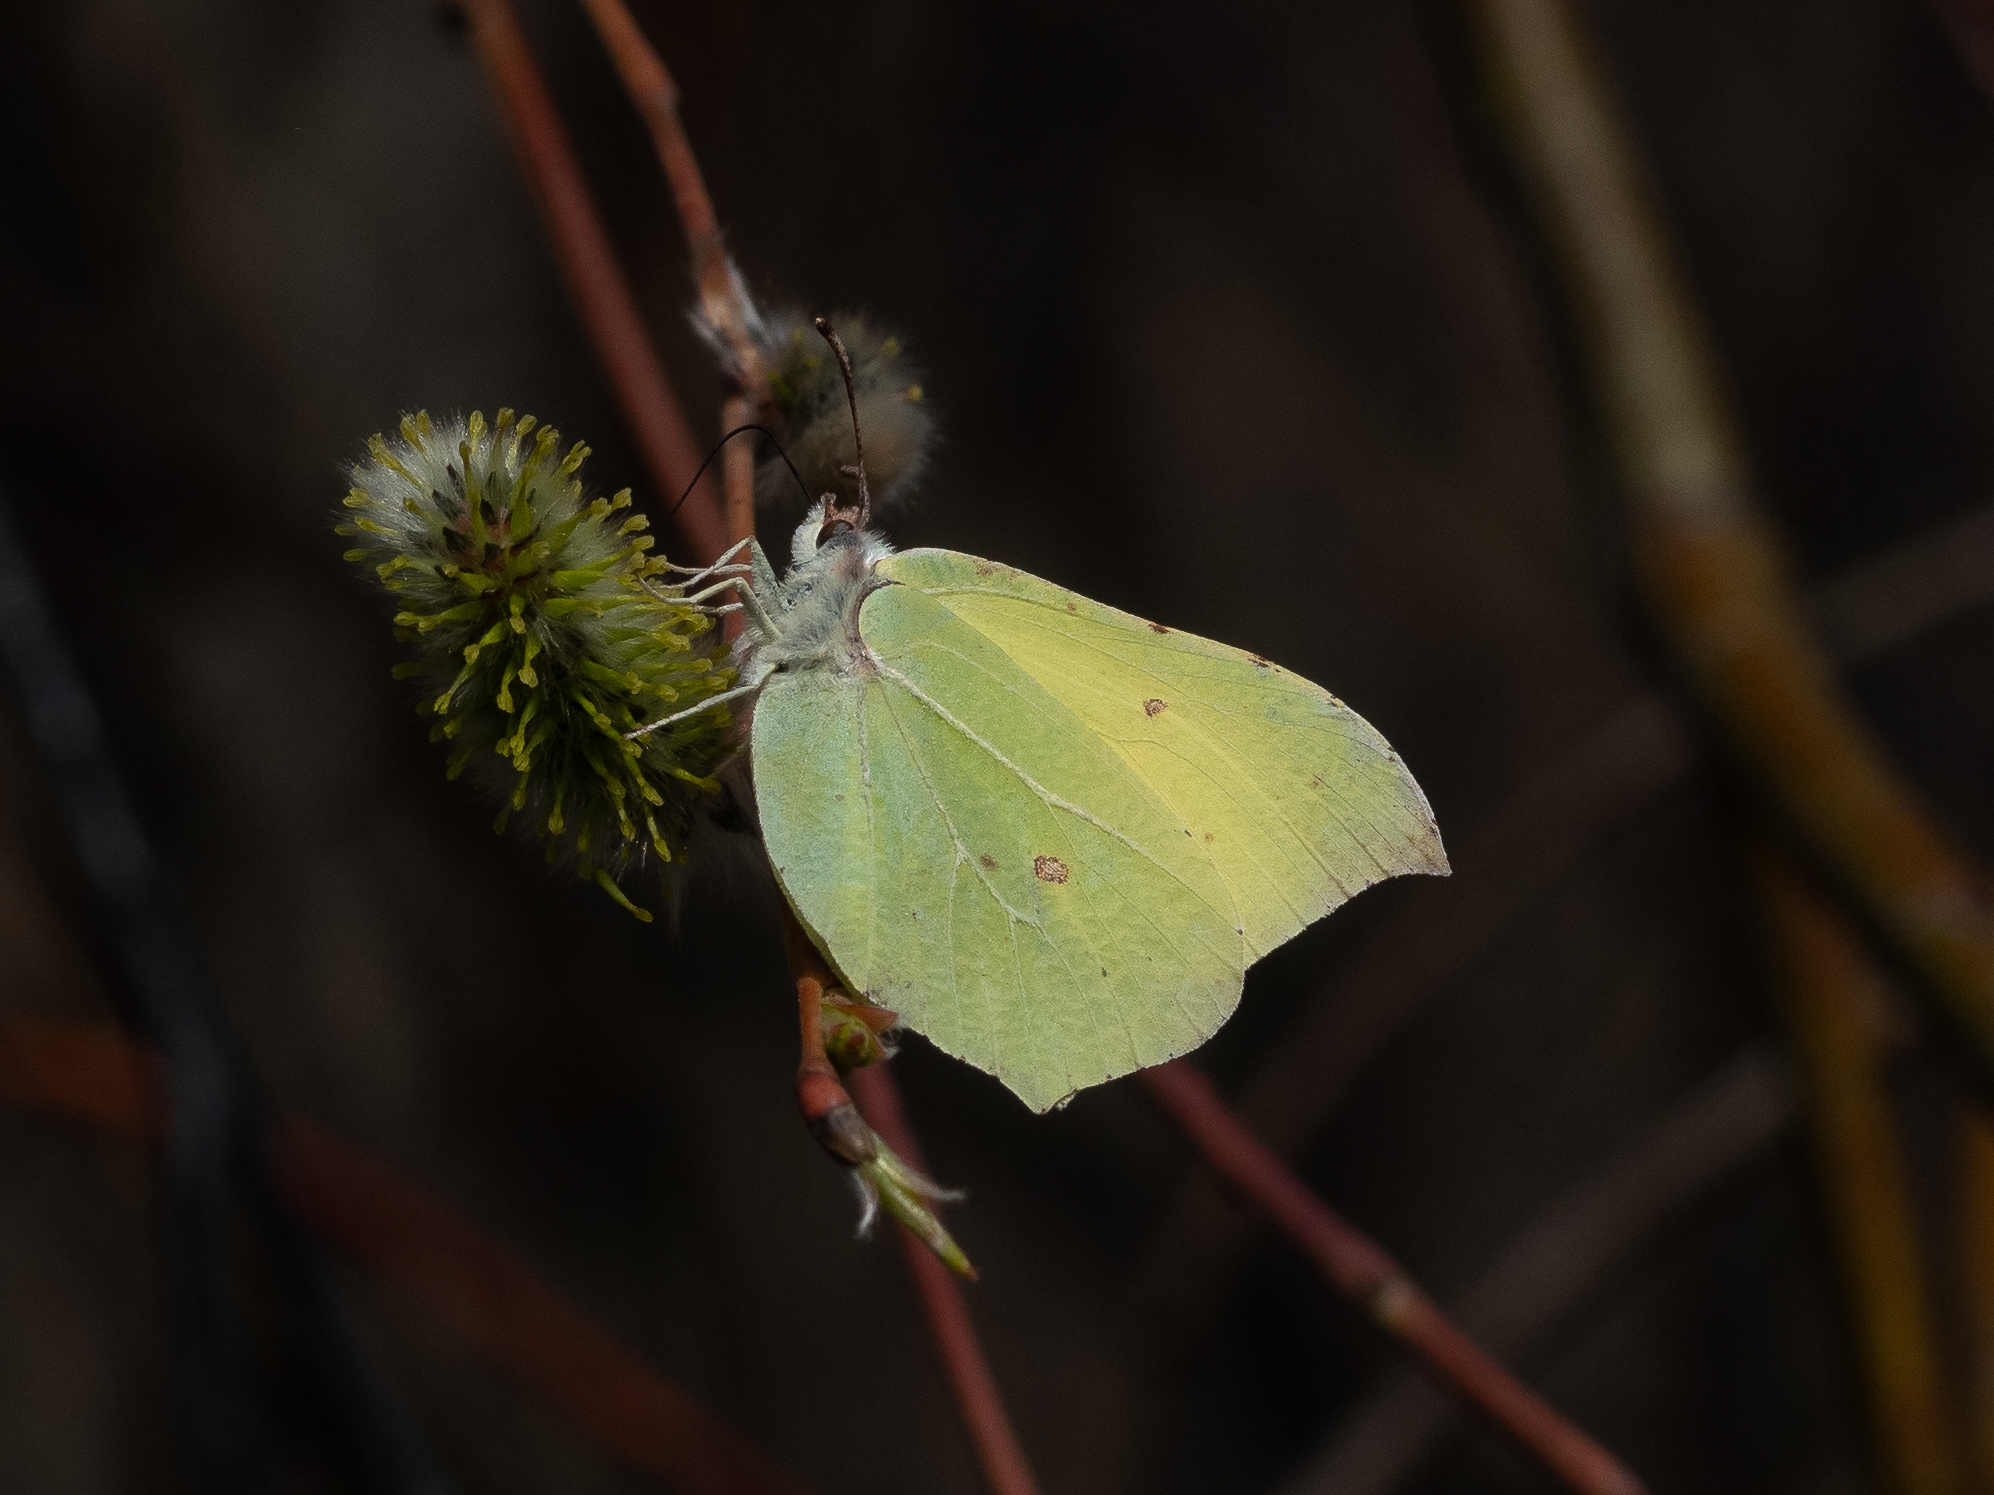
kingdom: Animalia
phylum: Arthropoda
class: Insecta
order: Lepidoptera
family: Pieridae
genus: Gonepteryx
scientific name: Gonepteryx rhamni
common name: Brimstone
